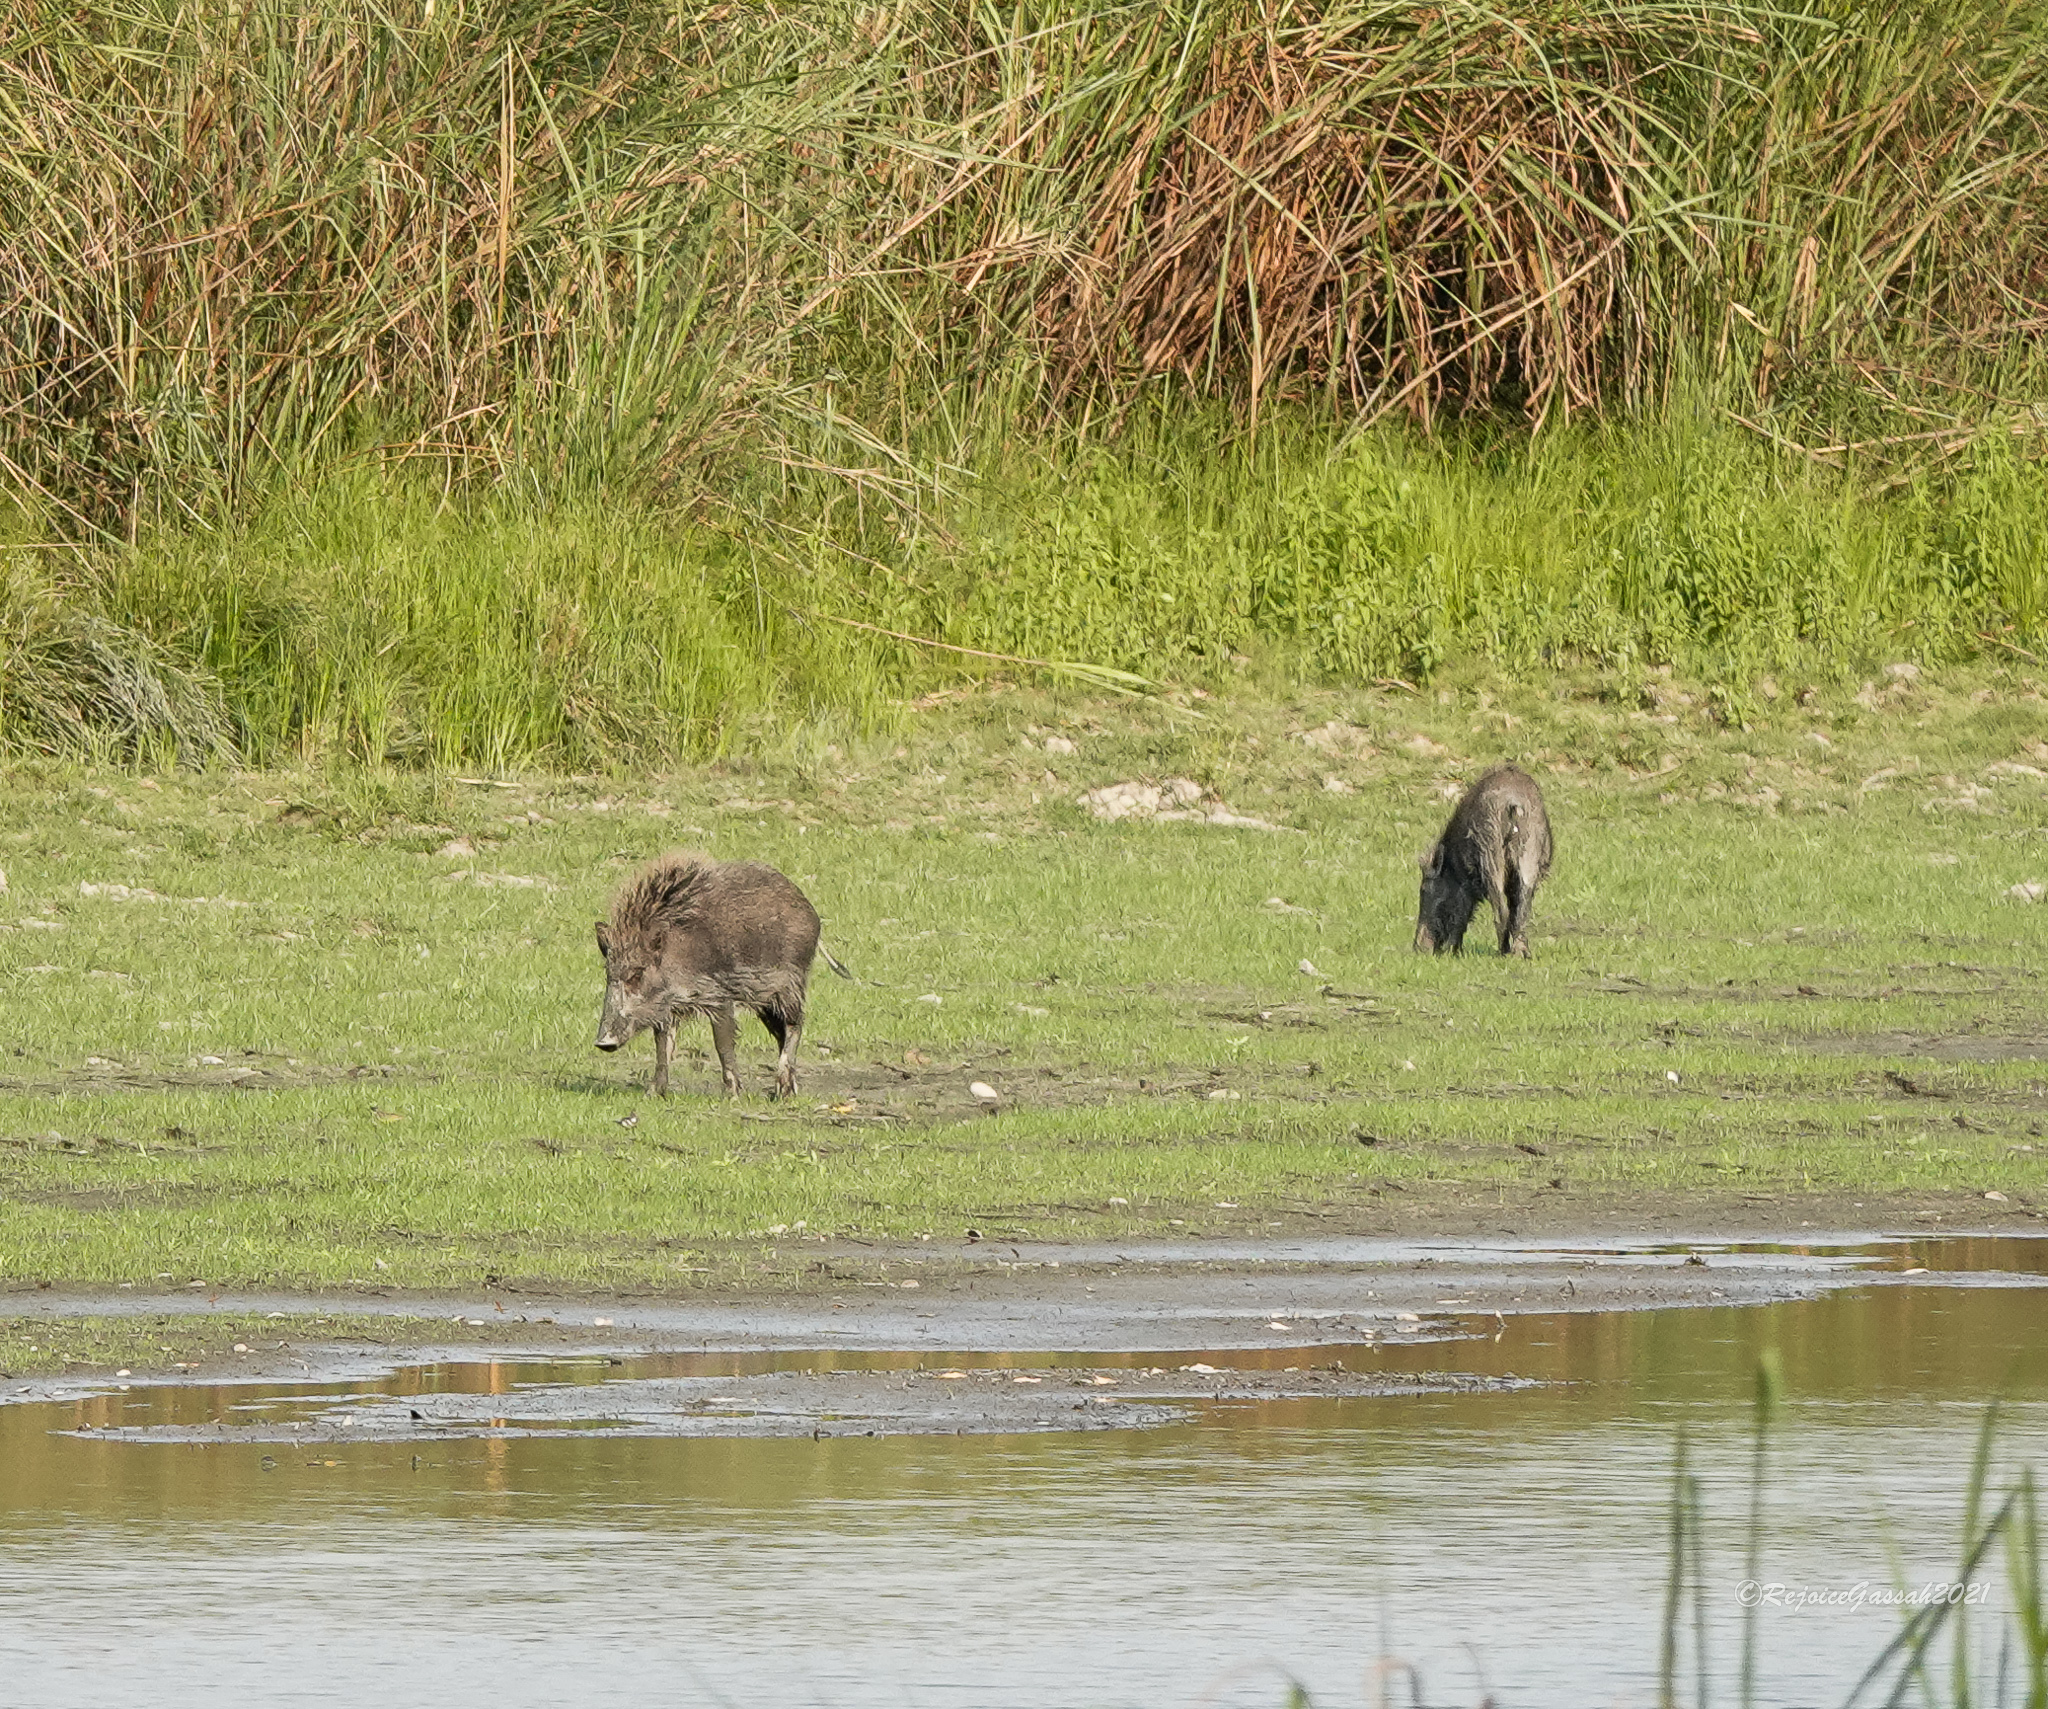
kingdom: Animalia
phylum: Chordata
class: Mammalia
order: Artiodactyla
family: Suidae
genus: Sus
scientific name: Sus scrofa
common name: Wild boar
